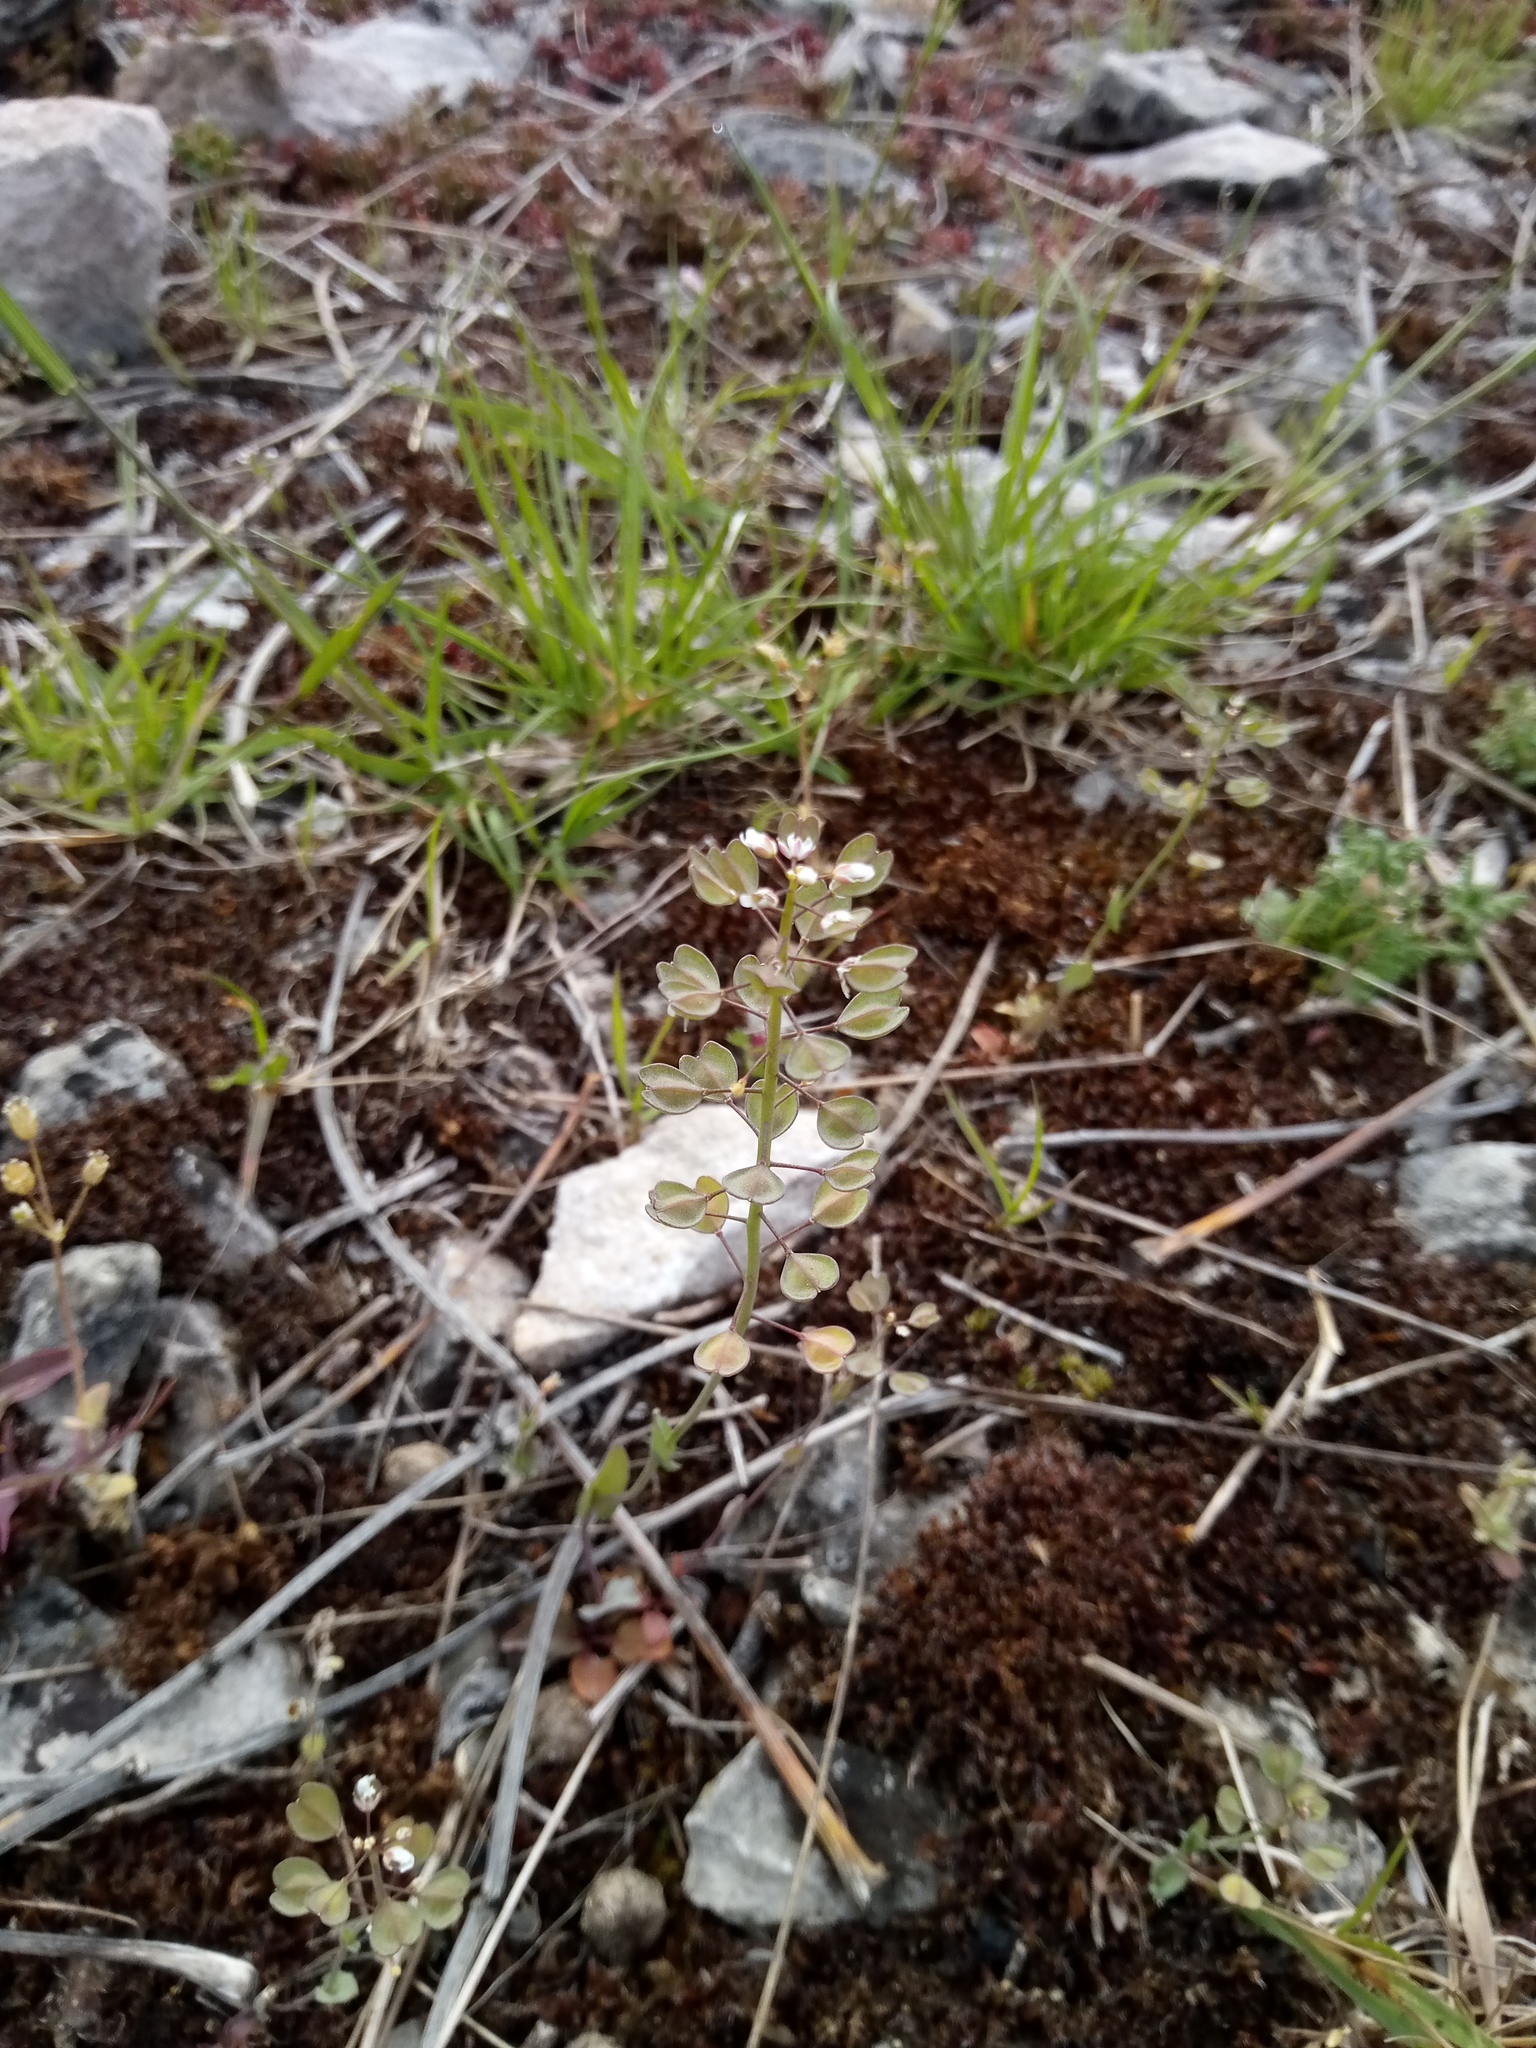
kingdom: Plantae
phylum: Tracheophyta
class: Magnoliopsida
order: Brassicales
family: Brassicaceae
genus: Noccaea
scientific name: Noccaea perfoliata
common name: Perfoliate pennycress
